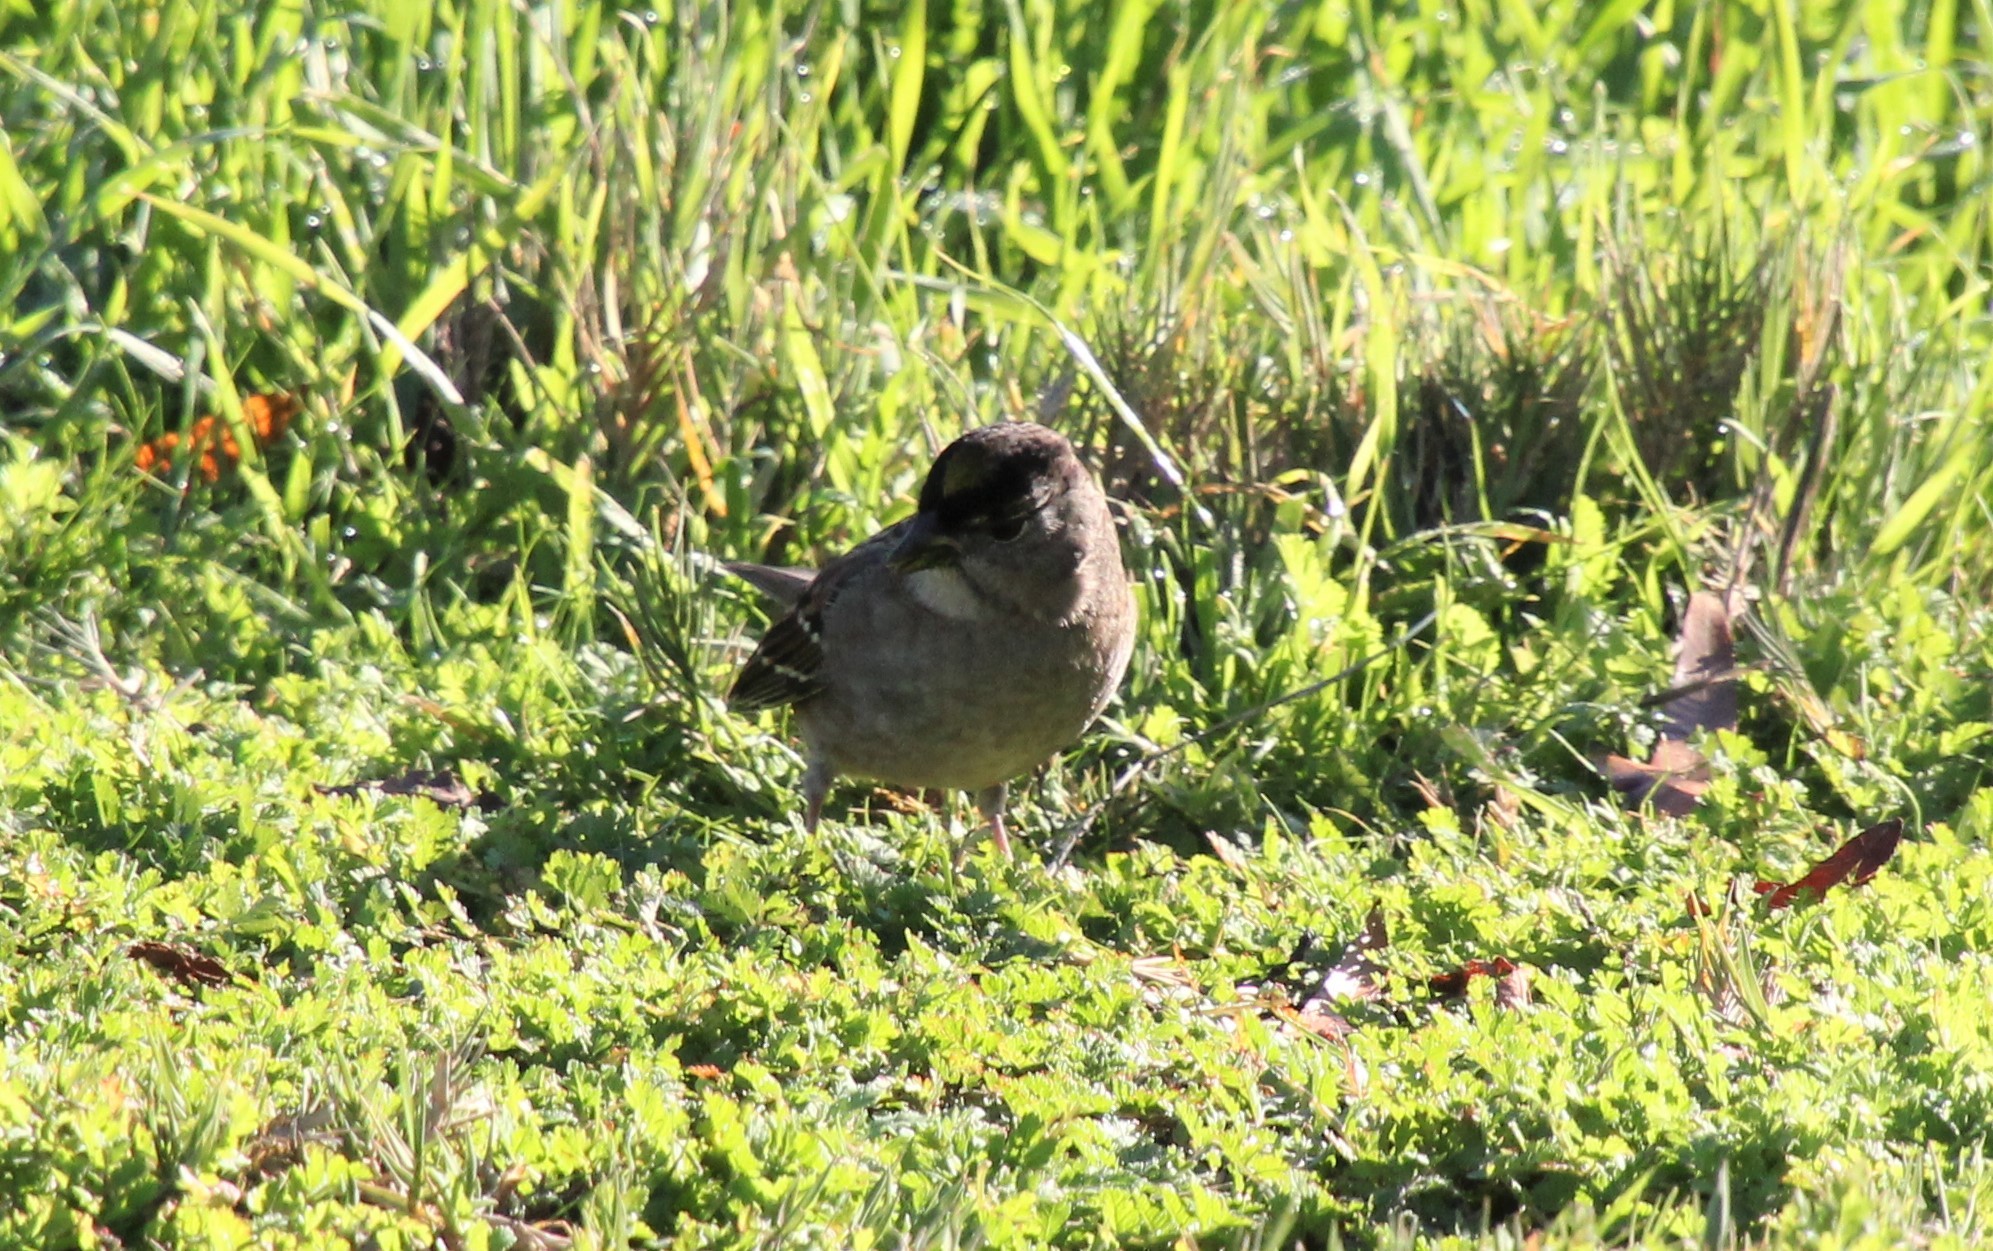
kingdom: Animalia
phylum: Chordata
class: Aves
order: Passeriformes
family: Passerellidae
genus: Zonotrichia
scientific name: Zonotrichia atricapilla
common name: Golden-crowned sparrow
